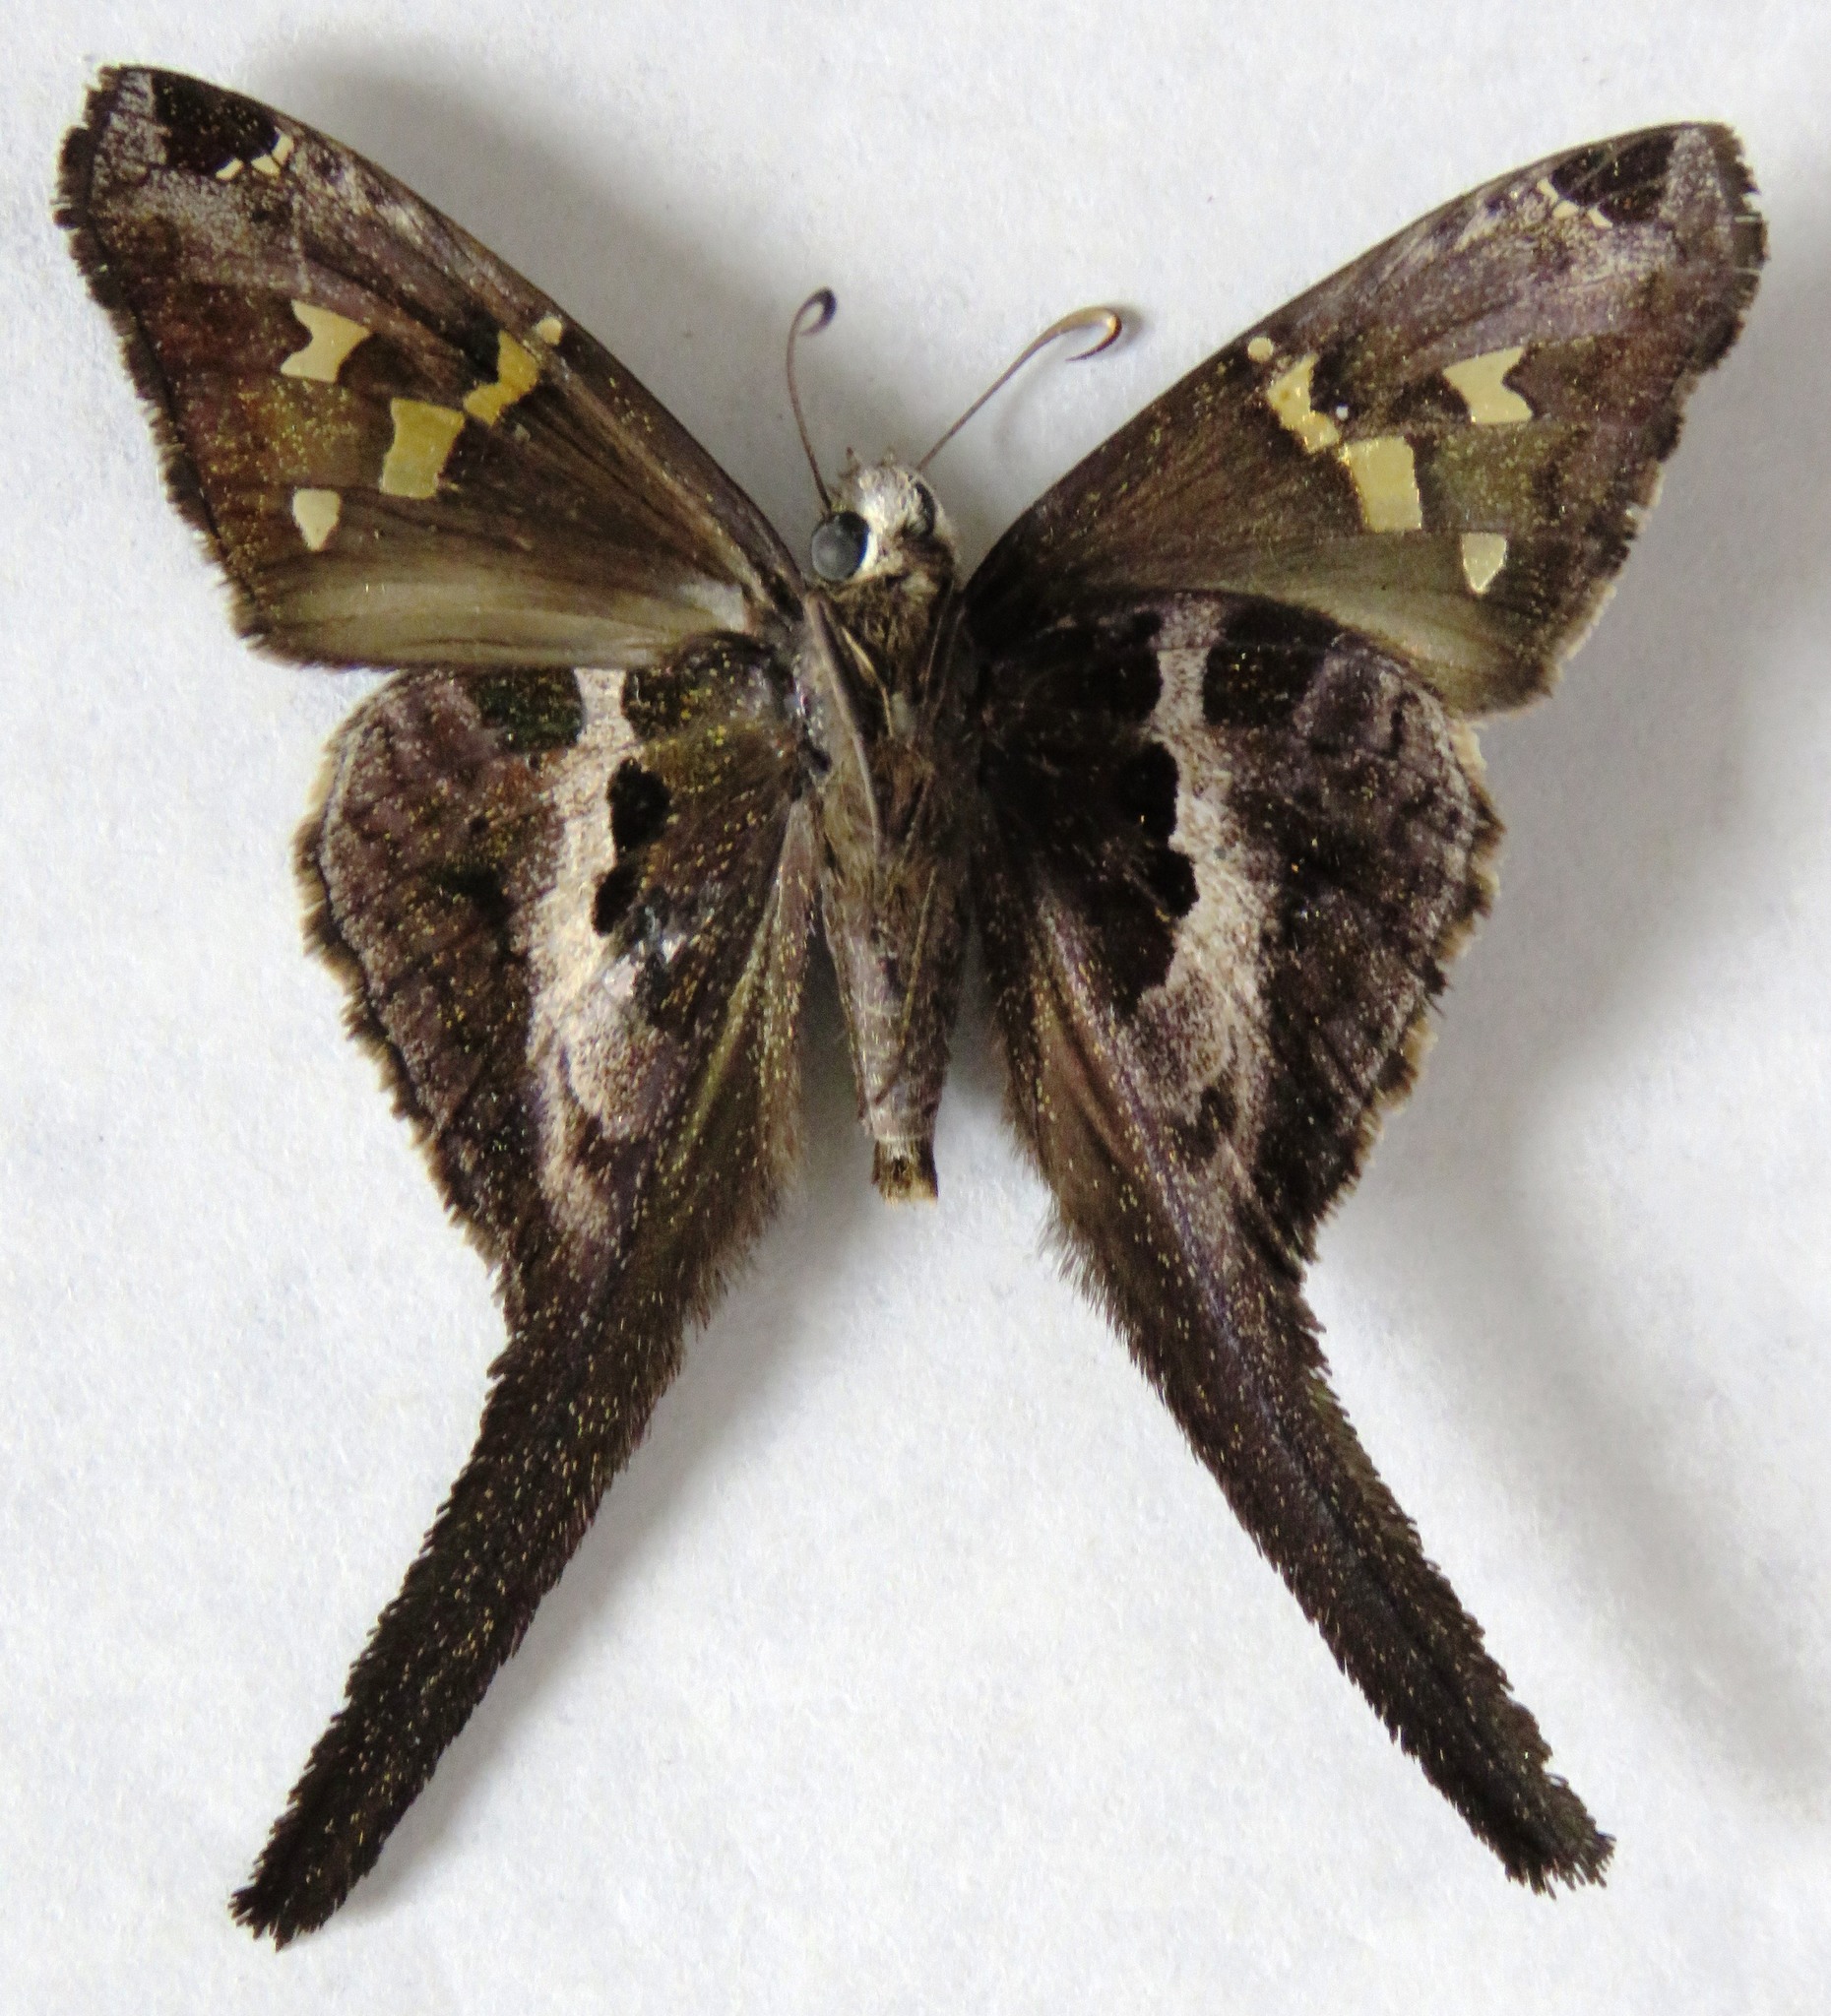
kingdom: Animalia
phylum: Arthropoda
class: Insecta
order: Lepidoptera
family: Hesperiidae
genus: Chioides
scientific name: Chioides catillus
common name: Silverbanded skipper
